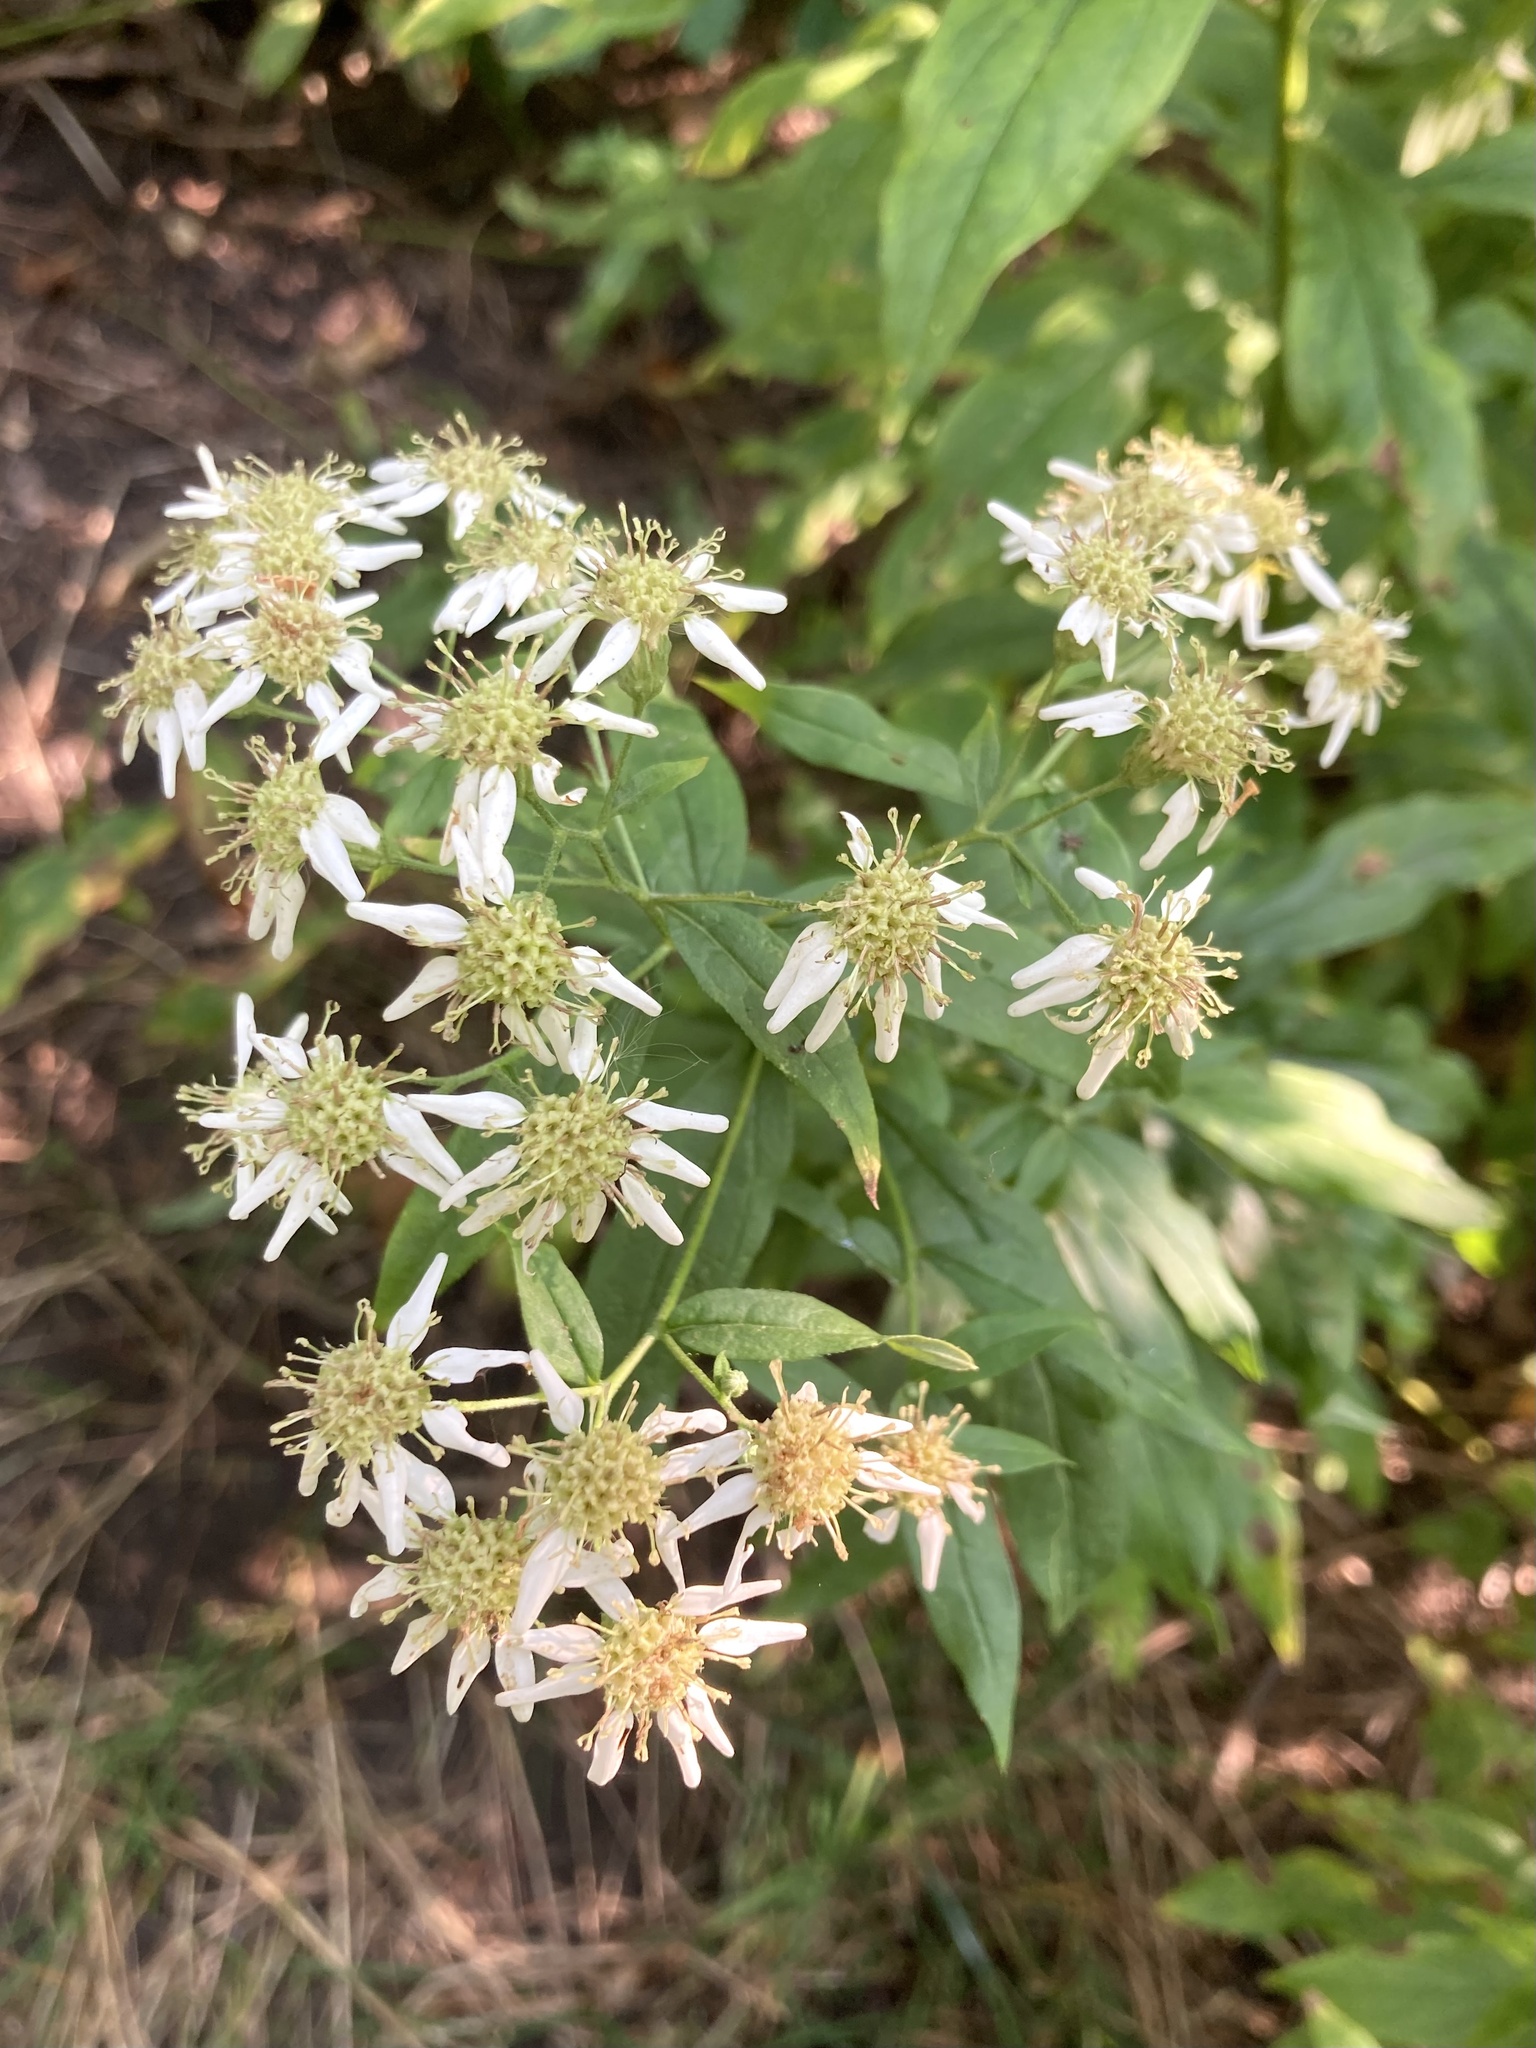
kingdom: Plantae
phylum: Tracheophyta
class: Magnoliopsida
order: Asterales
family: Asteraceae
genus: Doellingeria
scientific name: Doellingeria umbellata
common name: Flat-top white aster
